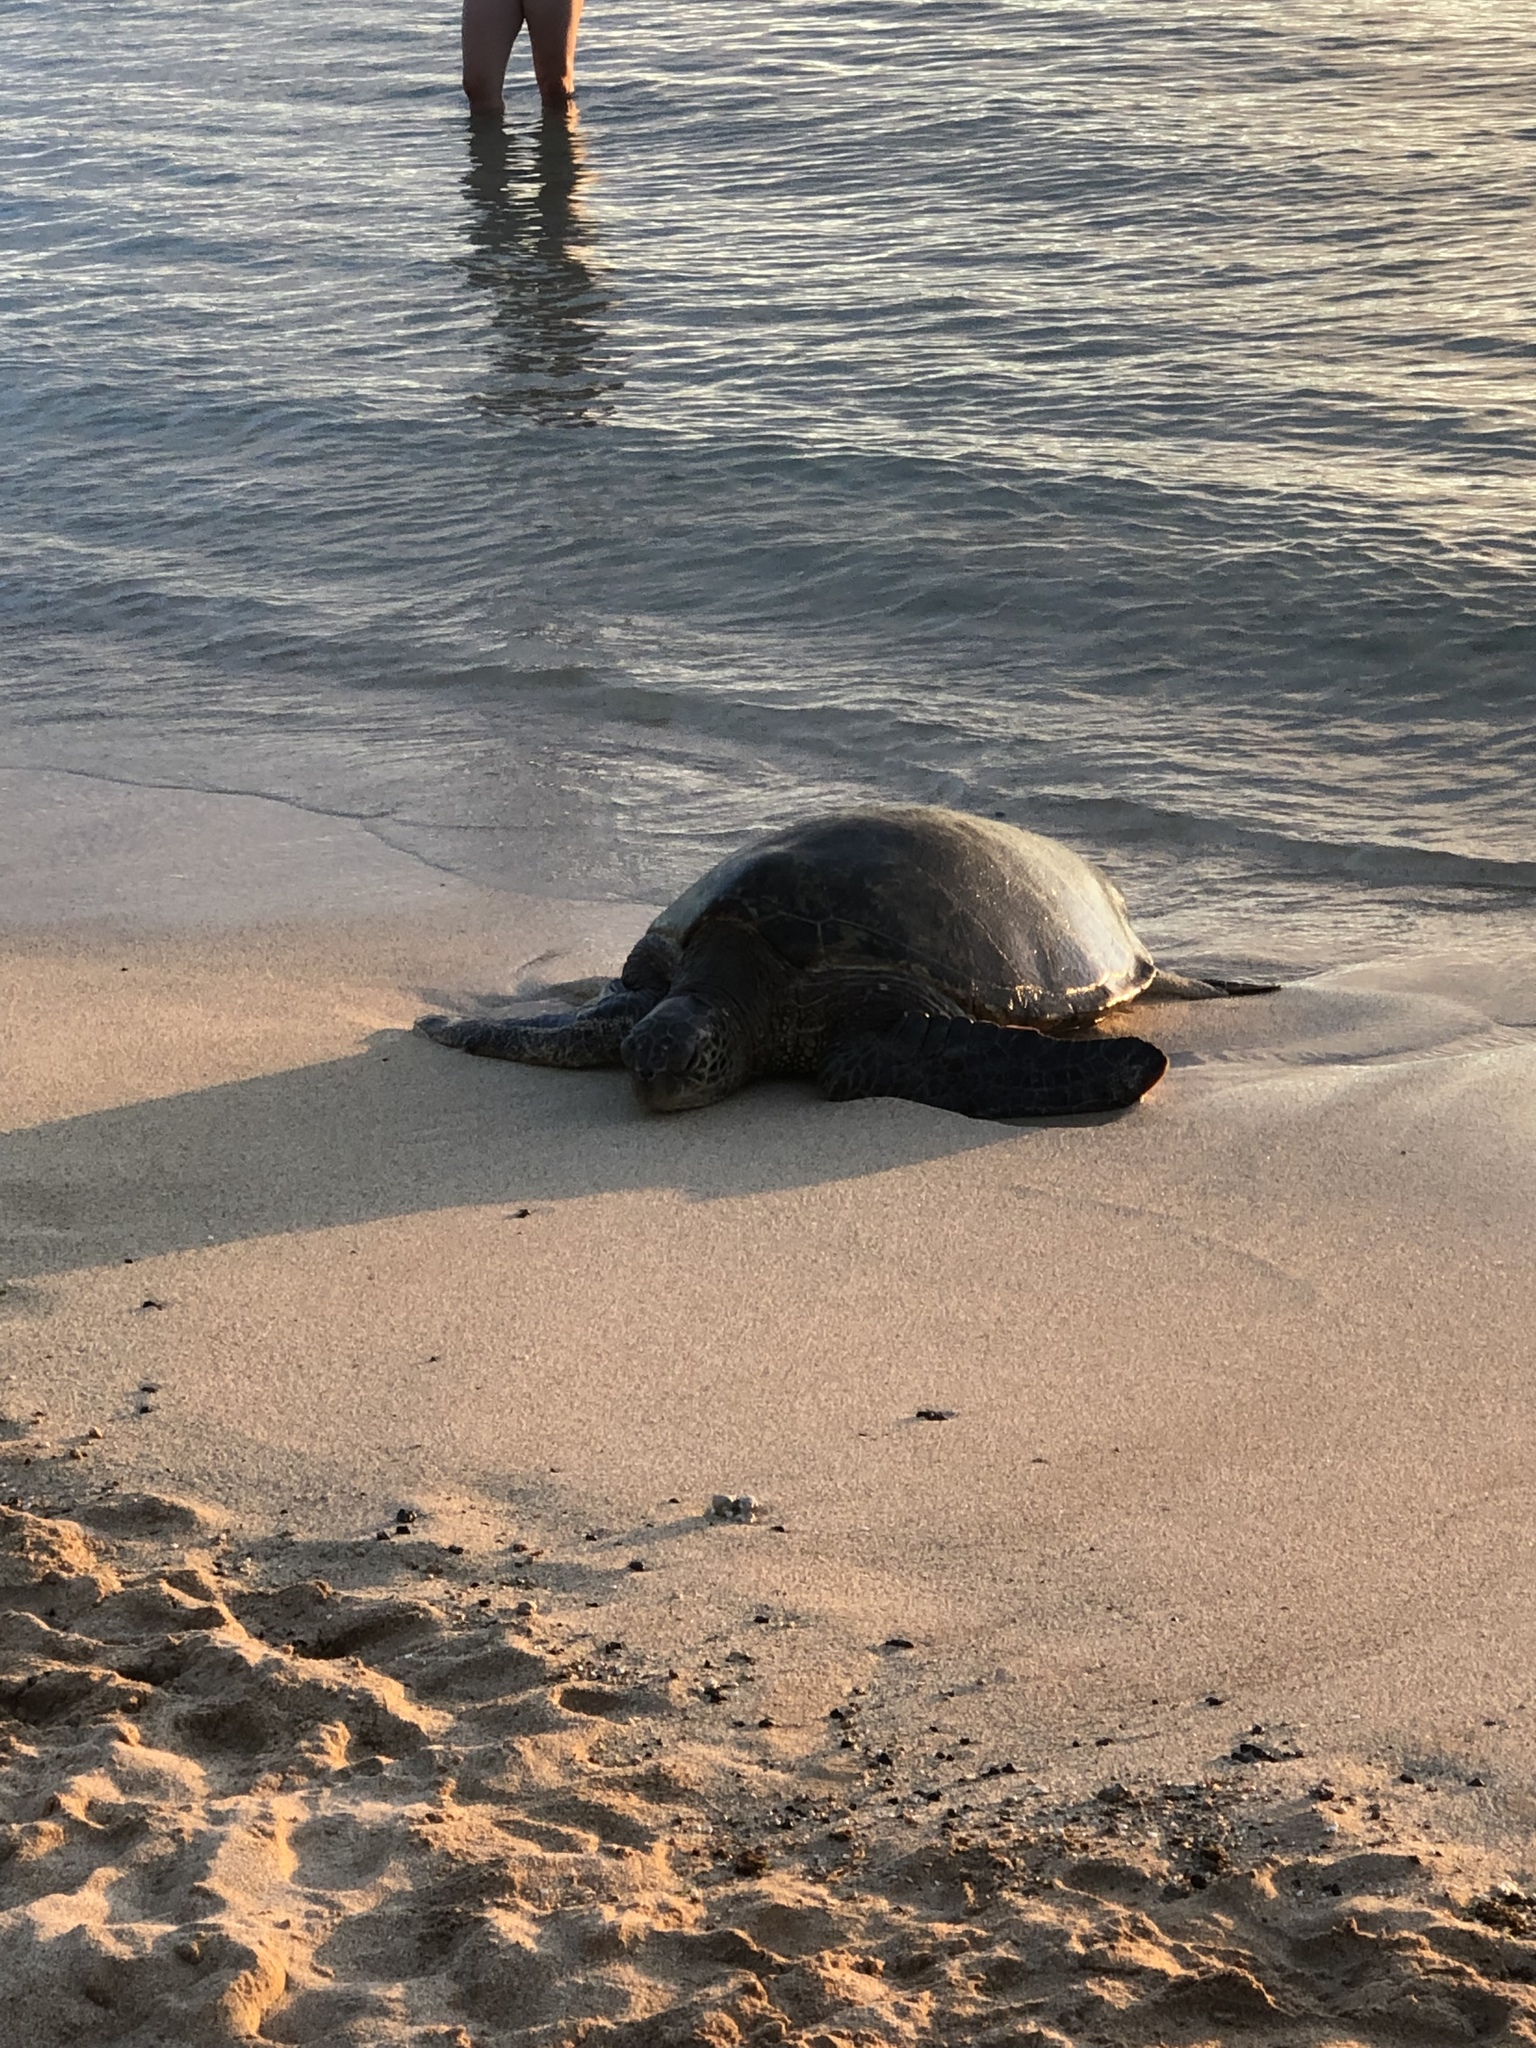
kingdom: Animalia
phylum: Chordata
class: Testudines
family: Cheloniidae
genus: Chelonia
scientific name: Chelonia mydas
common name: Green turtle
